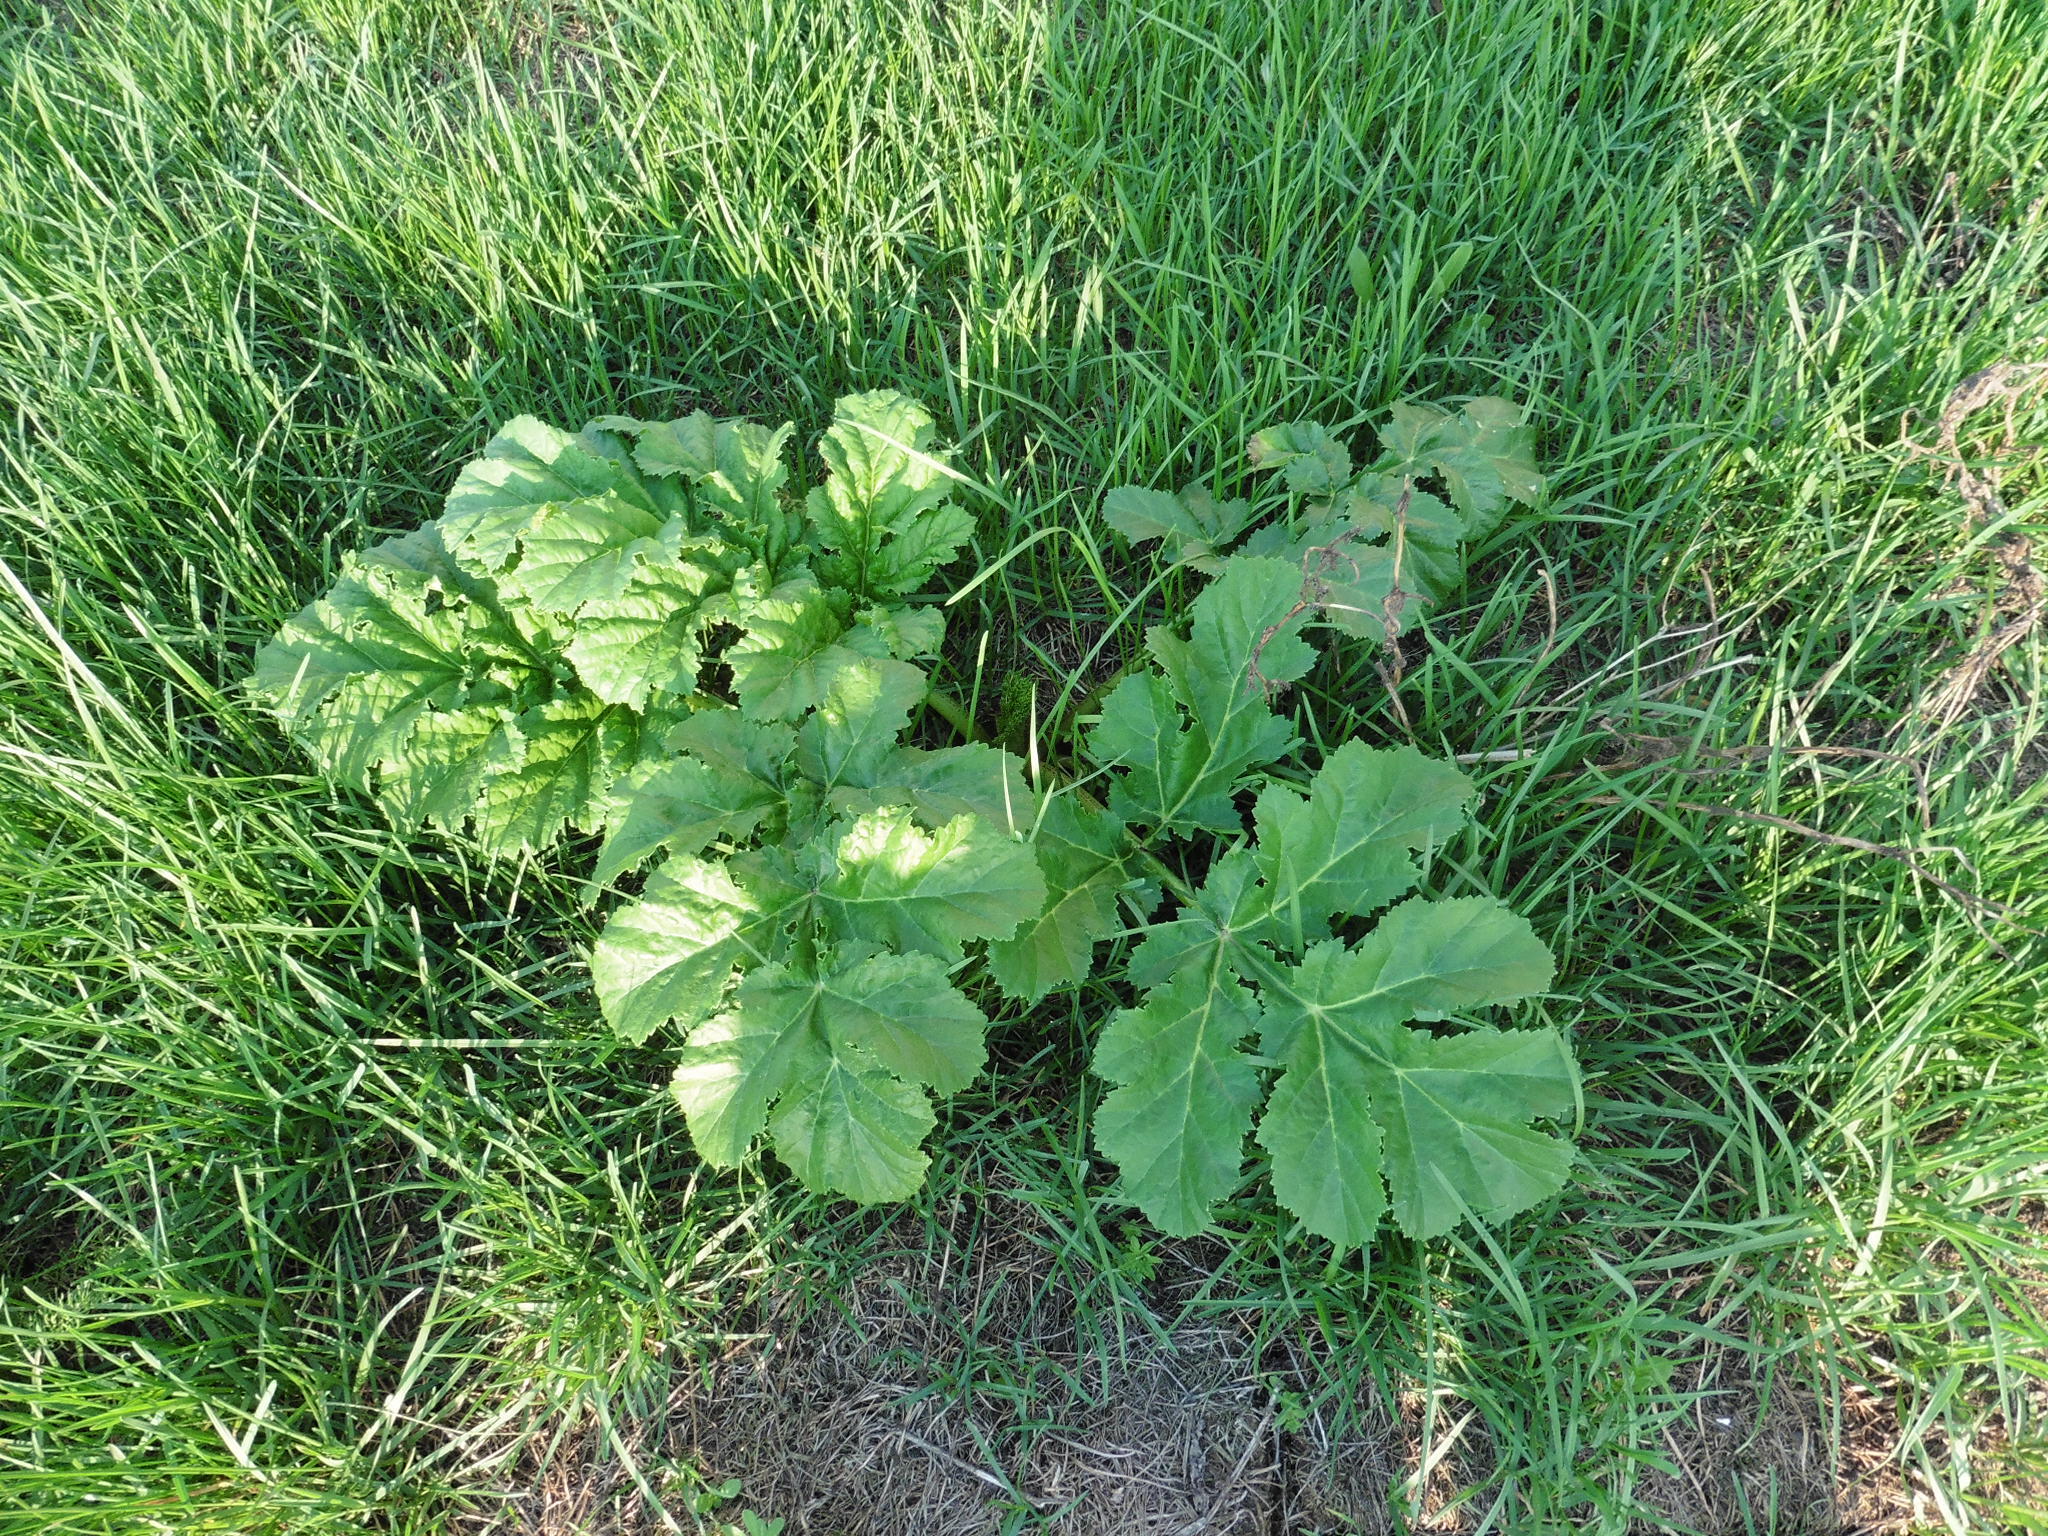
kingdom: Plantae
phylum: Tracheophyta
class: Magnoliopsida
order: Apiales
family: Apiaceae
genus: Heracleum
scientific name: Heracleum sosnowskyi
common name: Sosnowsky's hogweed
